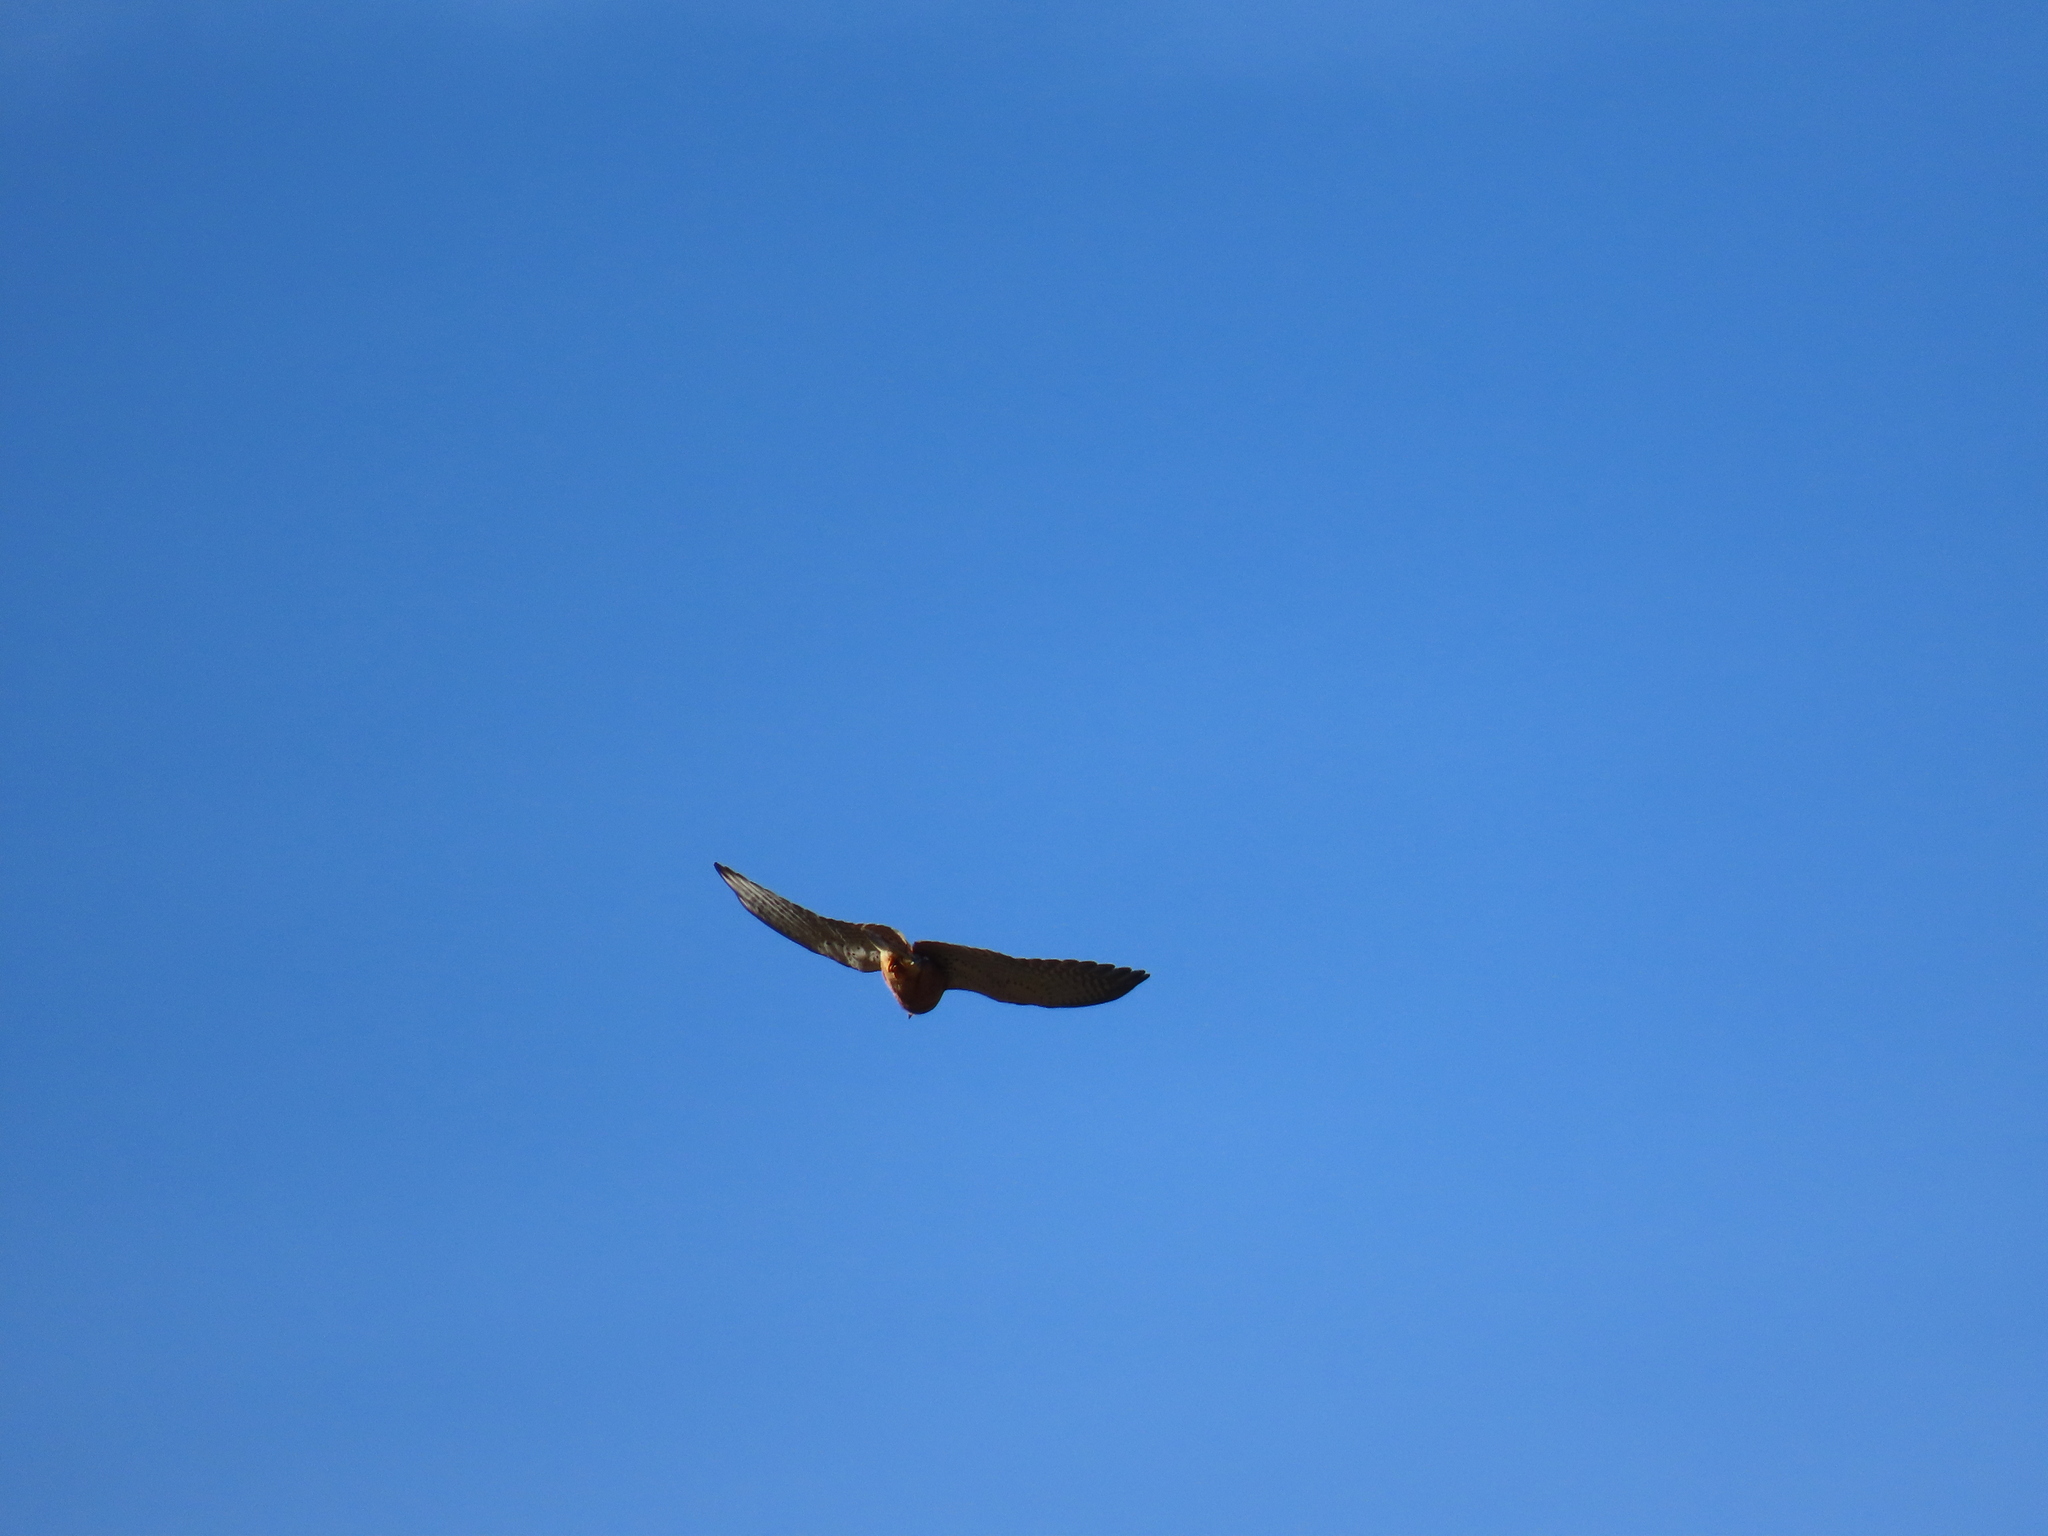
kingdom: Animalia
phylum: Chordata
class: Aves
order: Falconiformes
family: Falconidae
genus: Falco
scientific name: Falco rupicolus
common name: Rock kestrel
